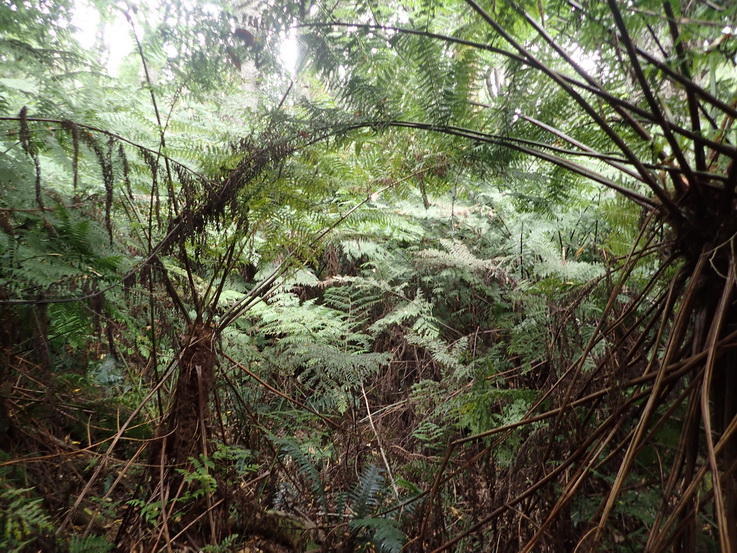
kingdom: Plantae
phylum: Tracheophyta
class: Polypodiopsida
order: Cyatheales
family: Cyatheaceae
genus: Gymnosphaera
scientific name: Gymnosphaera capensis
